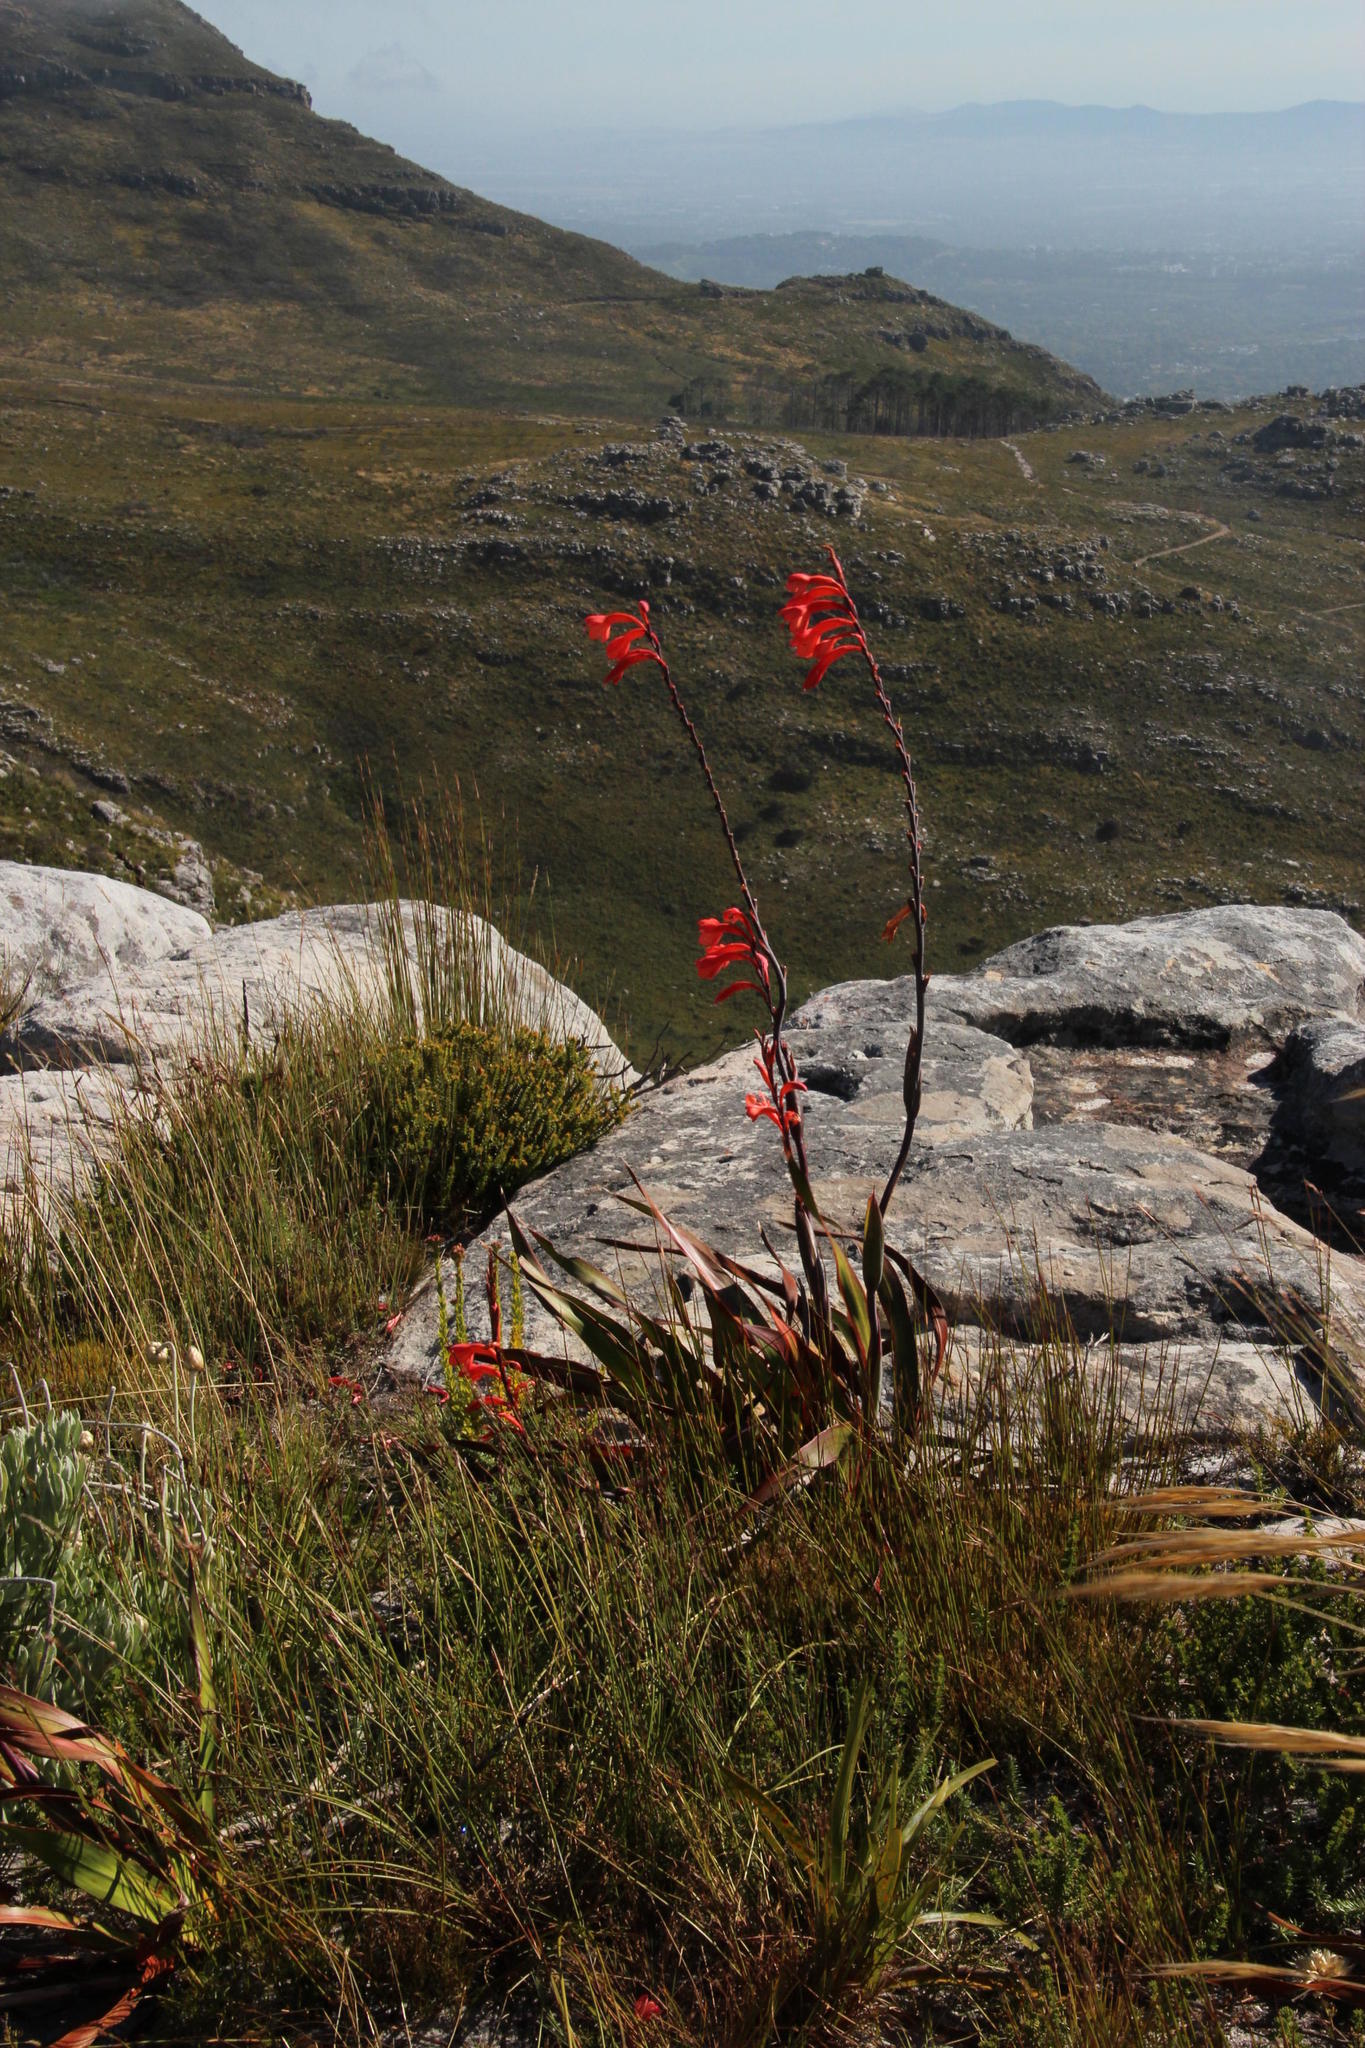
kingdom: Plantae
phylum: Tracheophyta
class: Liliopsida
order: Asparagales
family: Iridaceae
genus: Watsonia
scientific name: Watsonia tabularis
